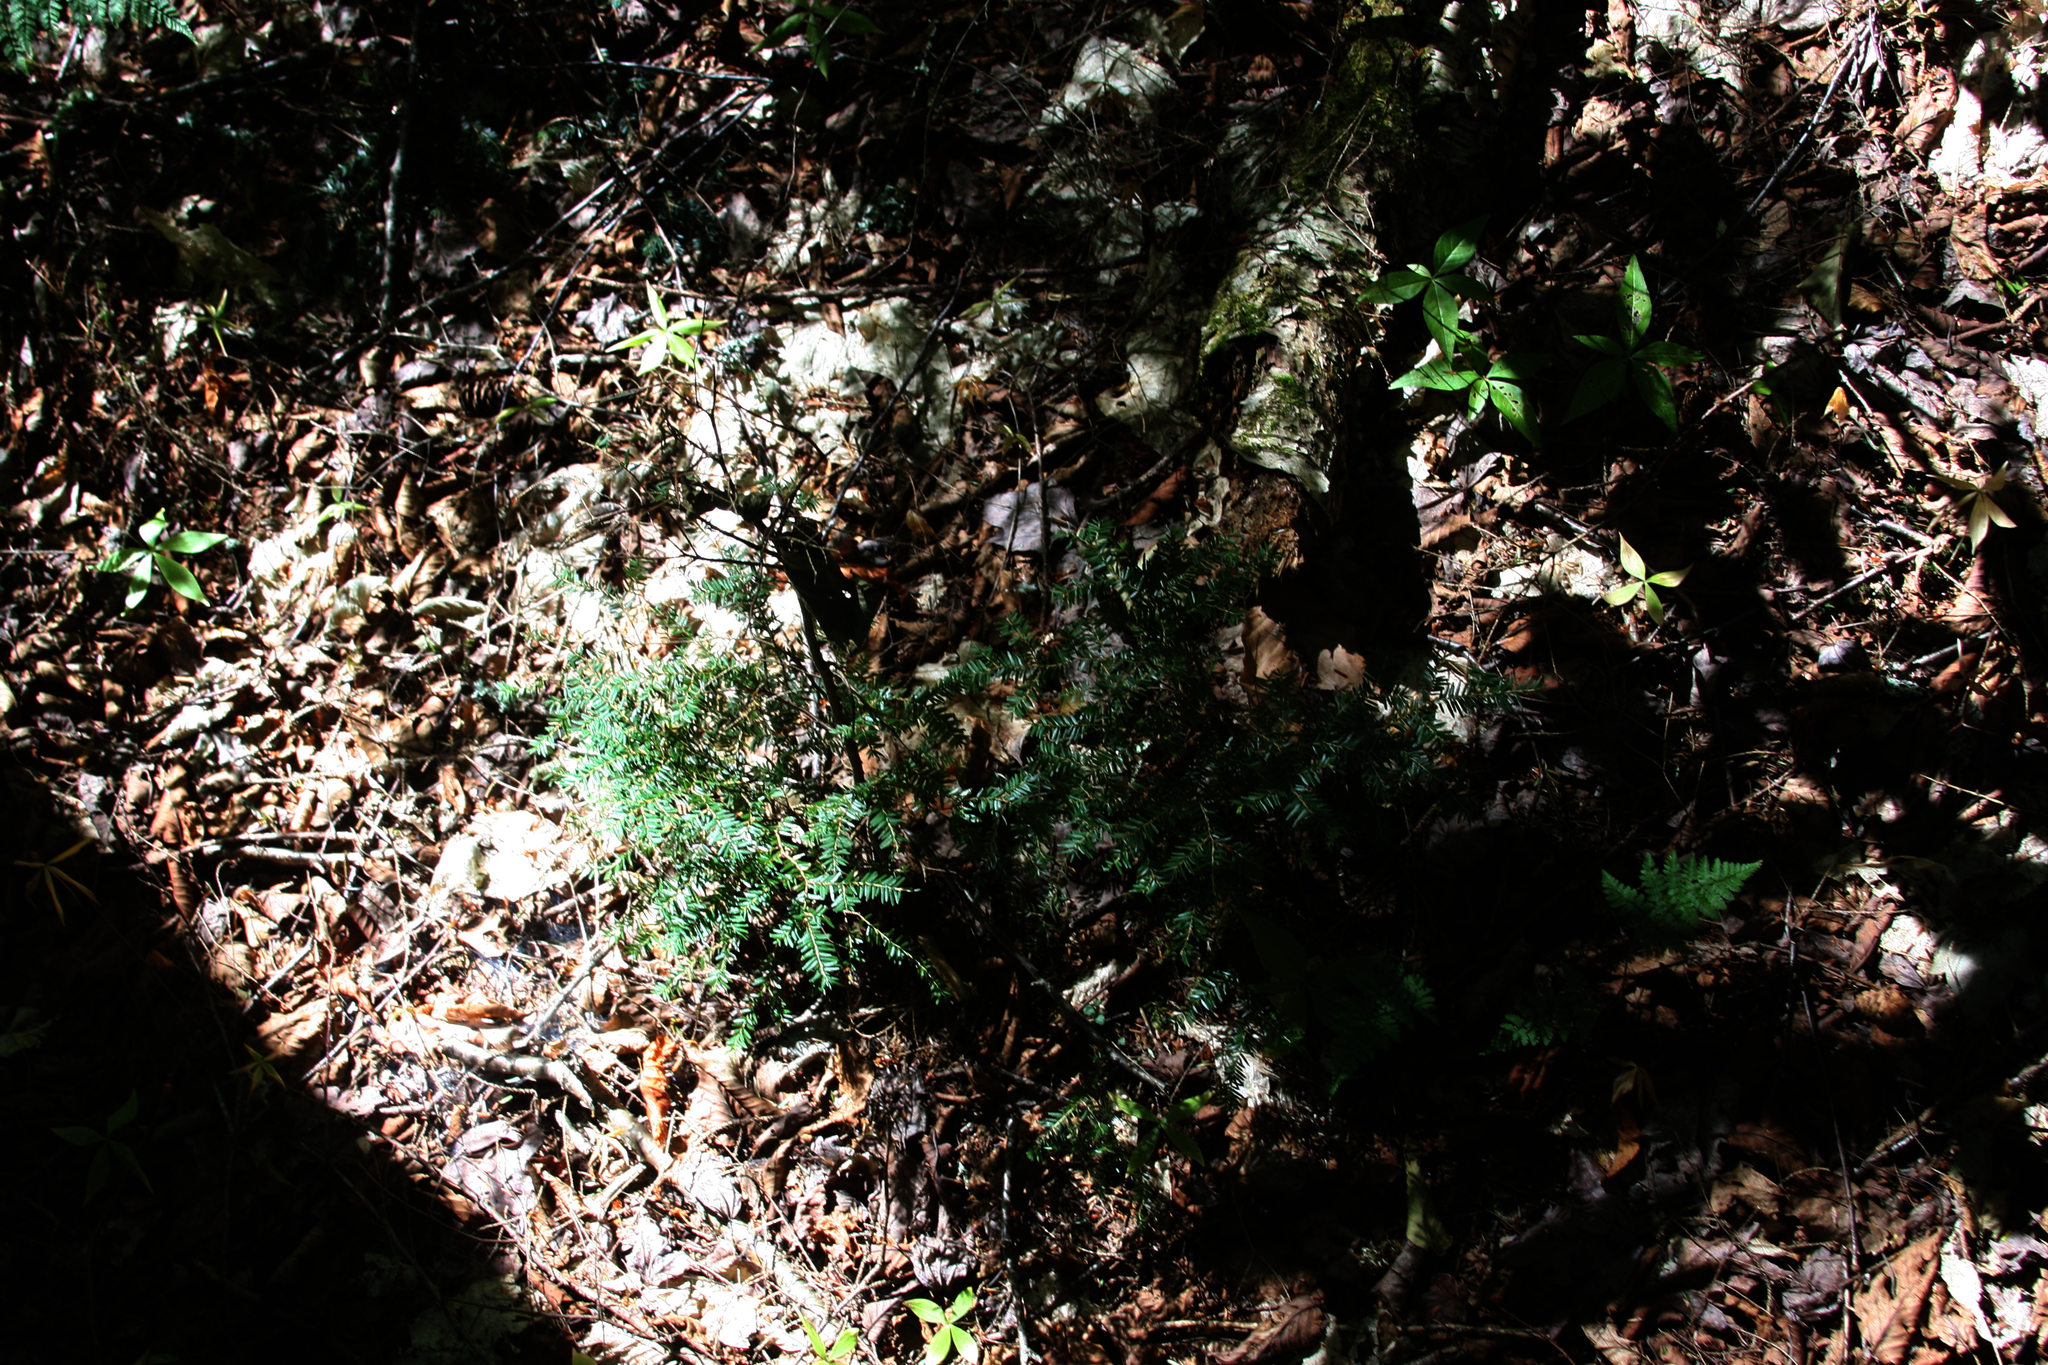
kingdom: Plantae
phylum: Tracheophyta
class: Pinopsida
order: Pinales
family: Pinaceae
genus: Tsuga
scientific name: Tsuga canadensis
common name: Eastern hemlock
